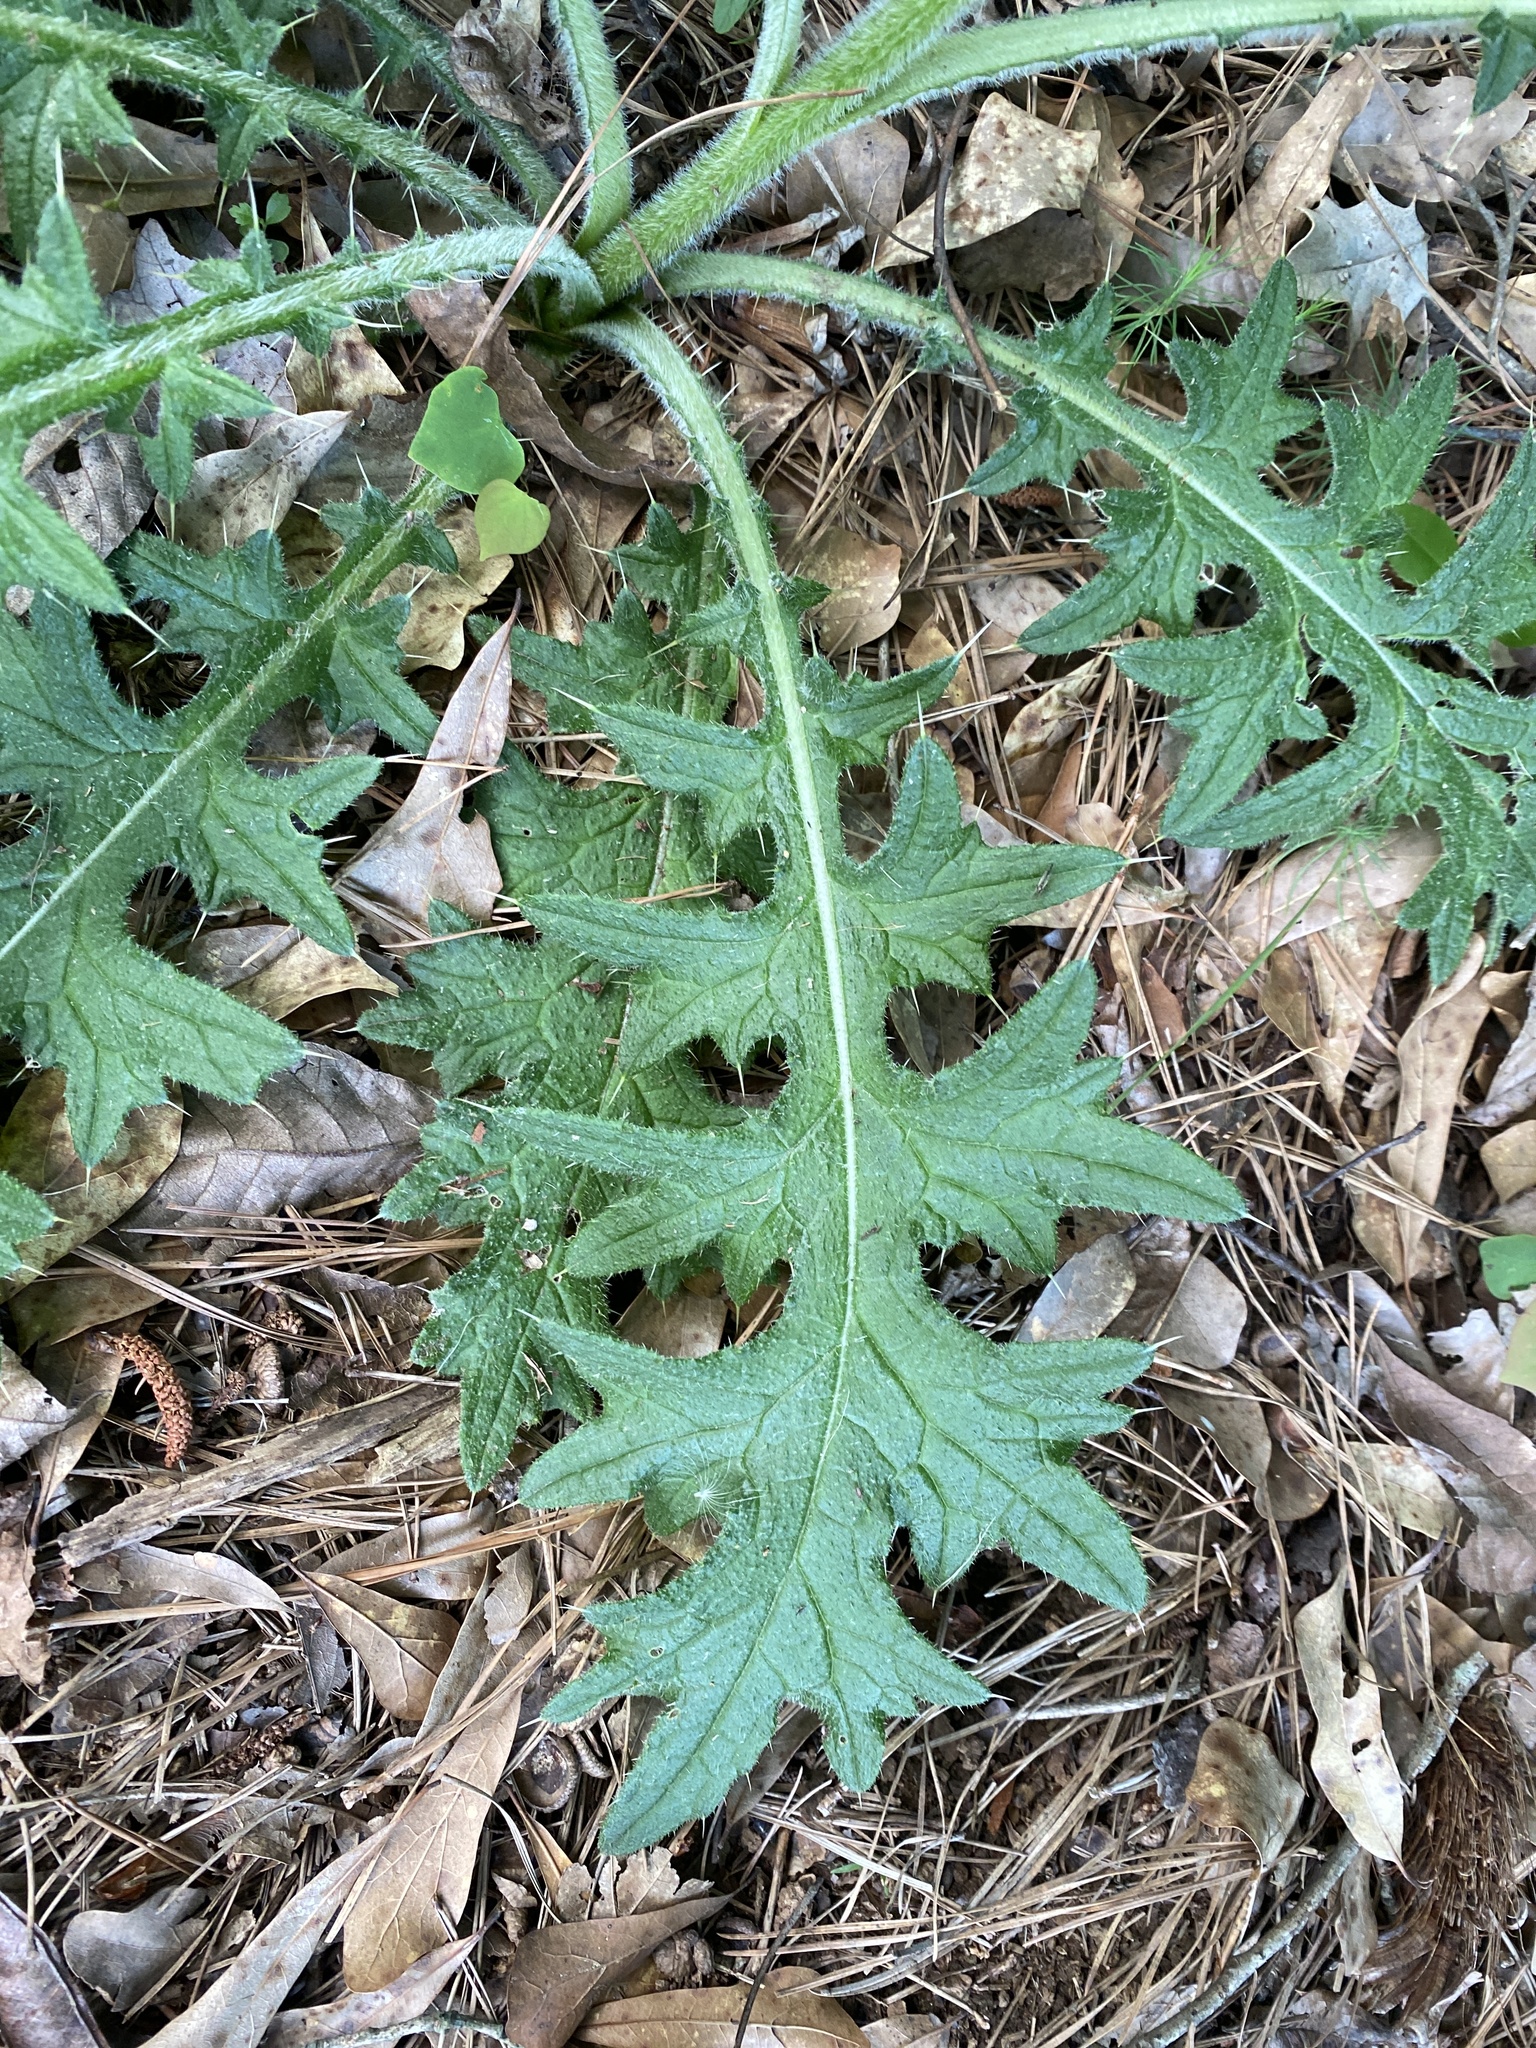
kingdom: Plantae
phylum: Tracheophyta
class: Magnoliopsida
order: Asterales
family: Asteraceae
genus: Cirsium
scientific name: Cirsium vulgare
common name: Bull thistle
